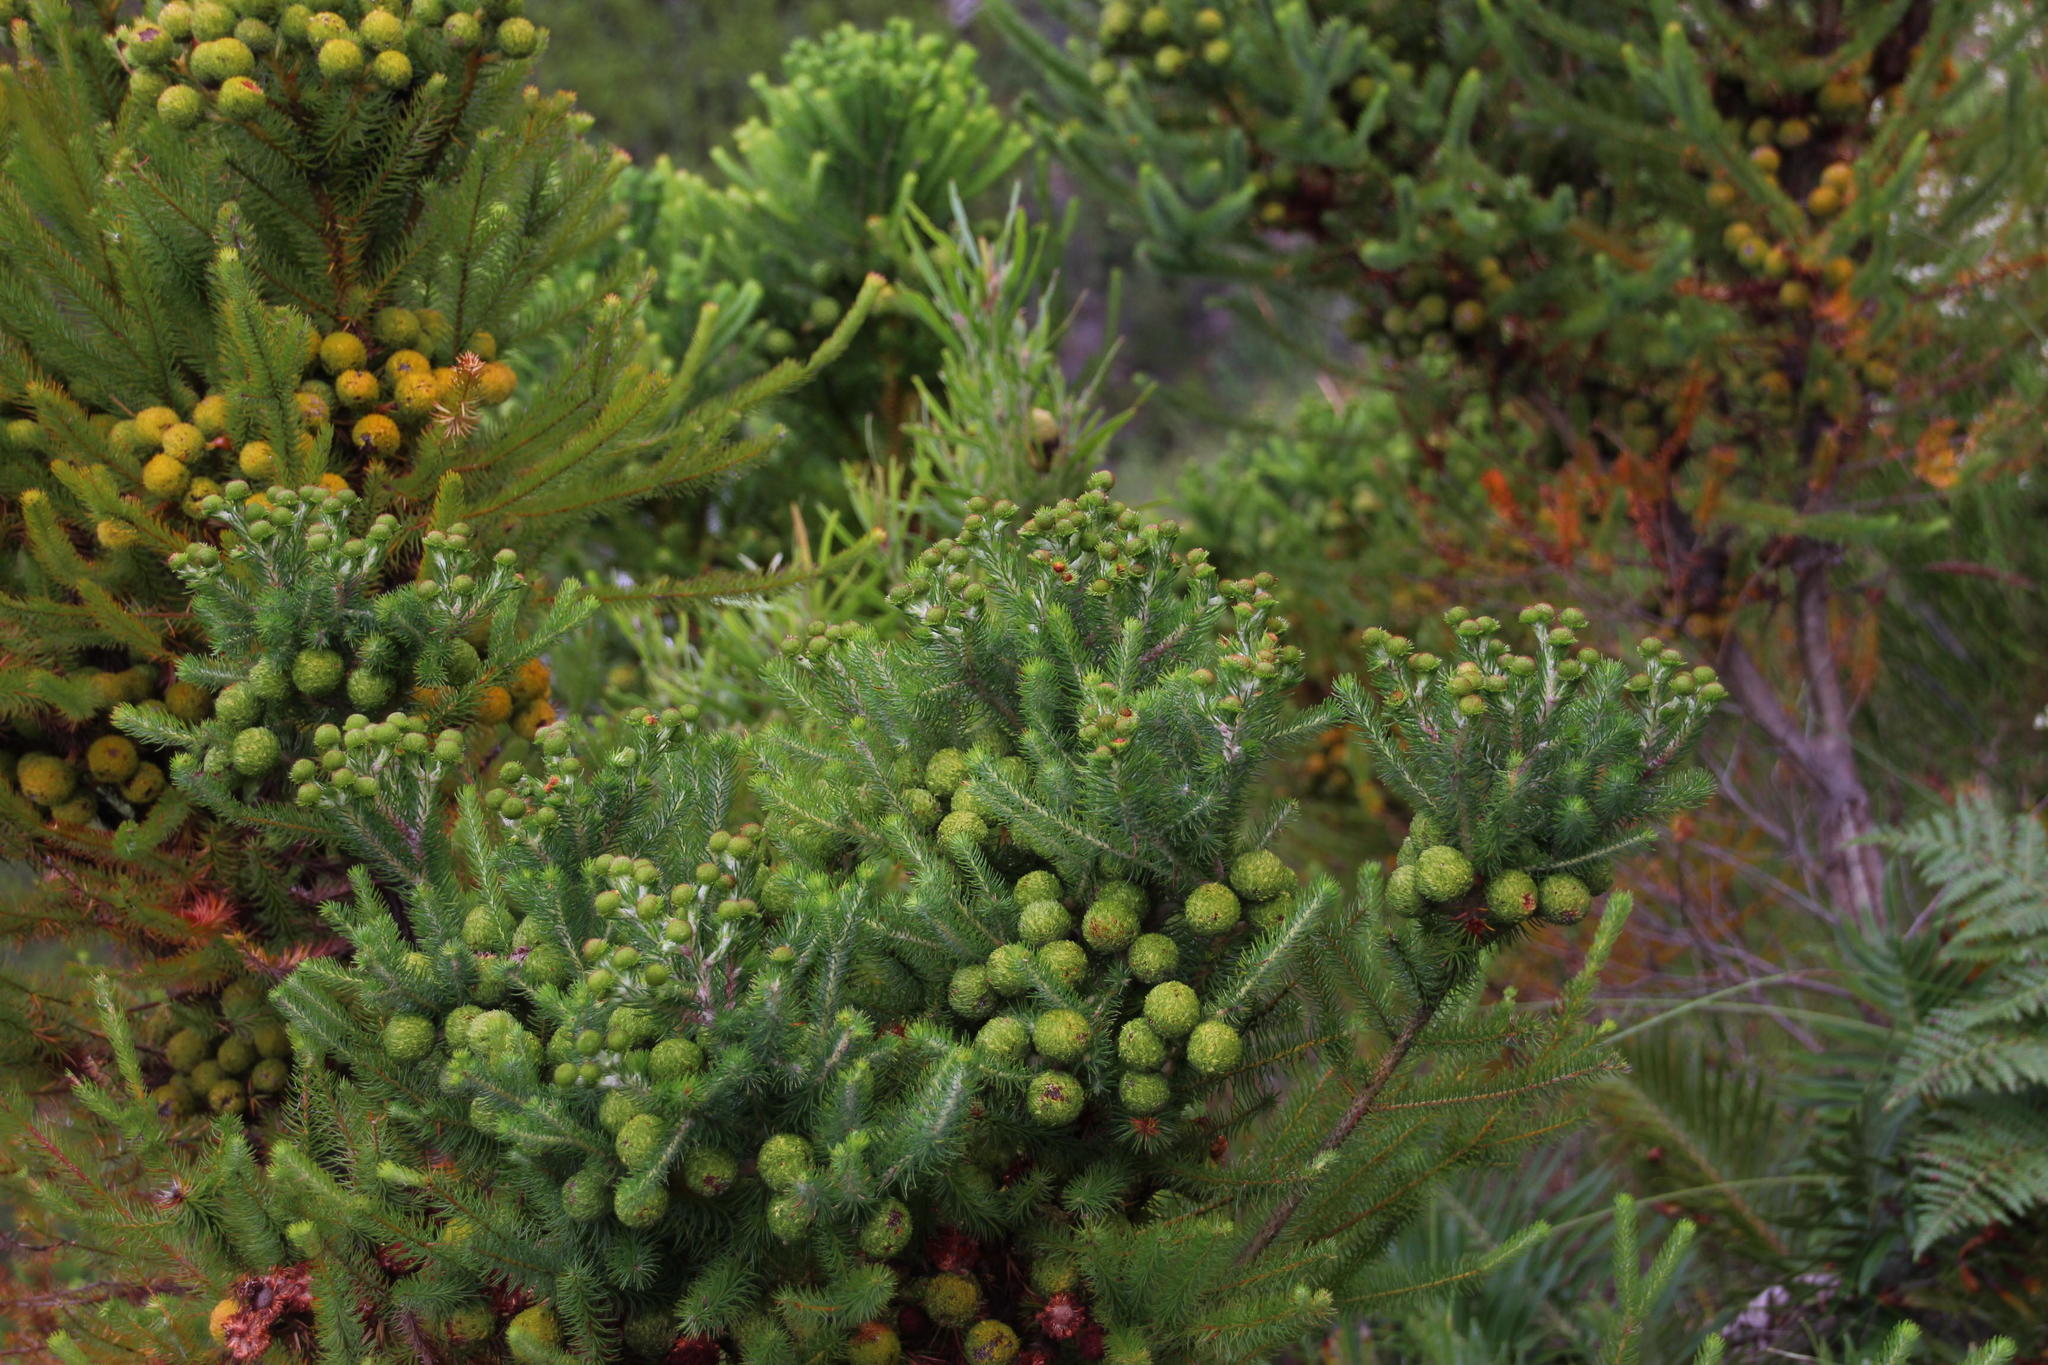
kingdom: Plantae
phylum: Tracheophyta
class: Magnoliopsida
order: Bruniales
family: Bruniaceae
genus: Berzelia
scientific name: Berzelia galpinii
